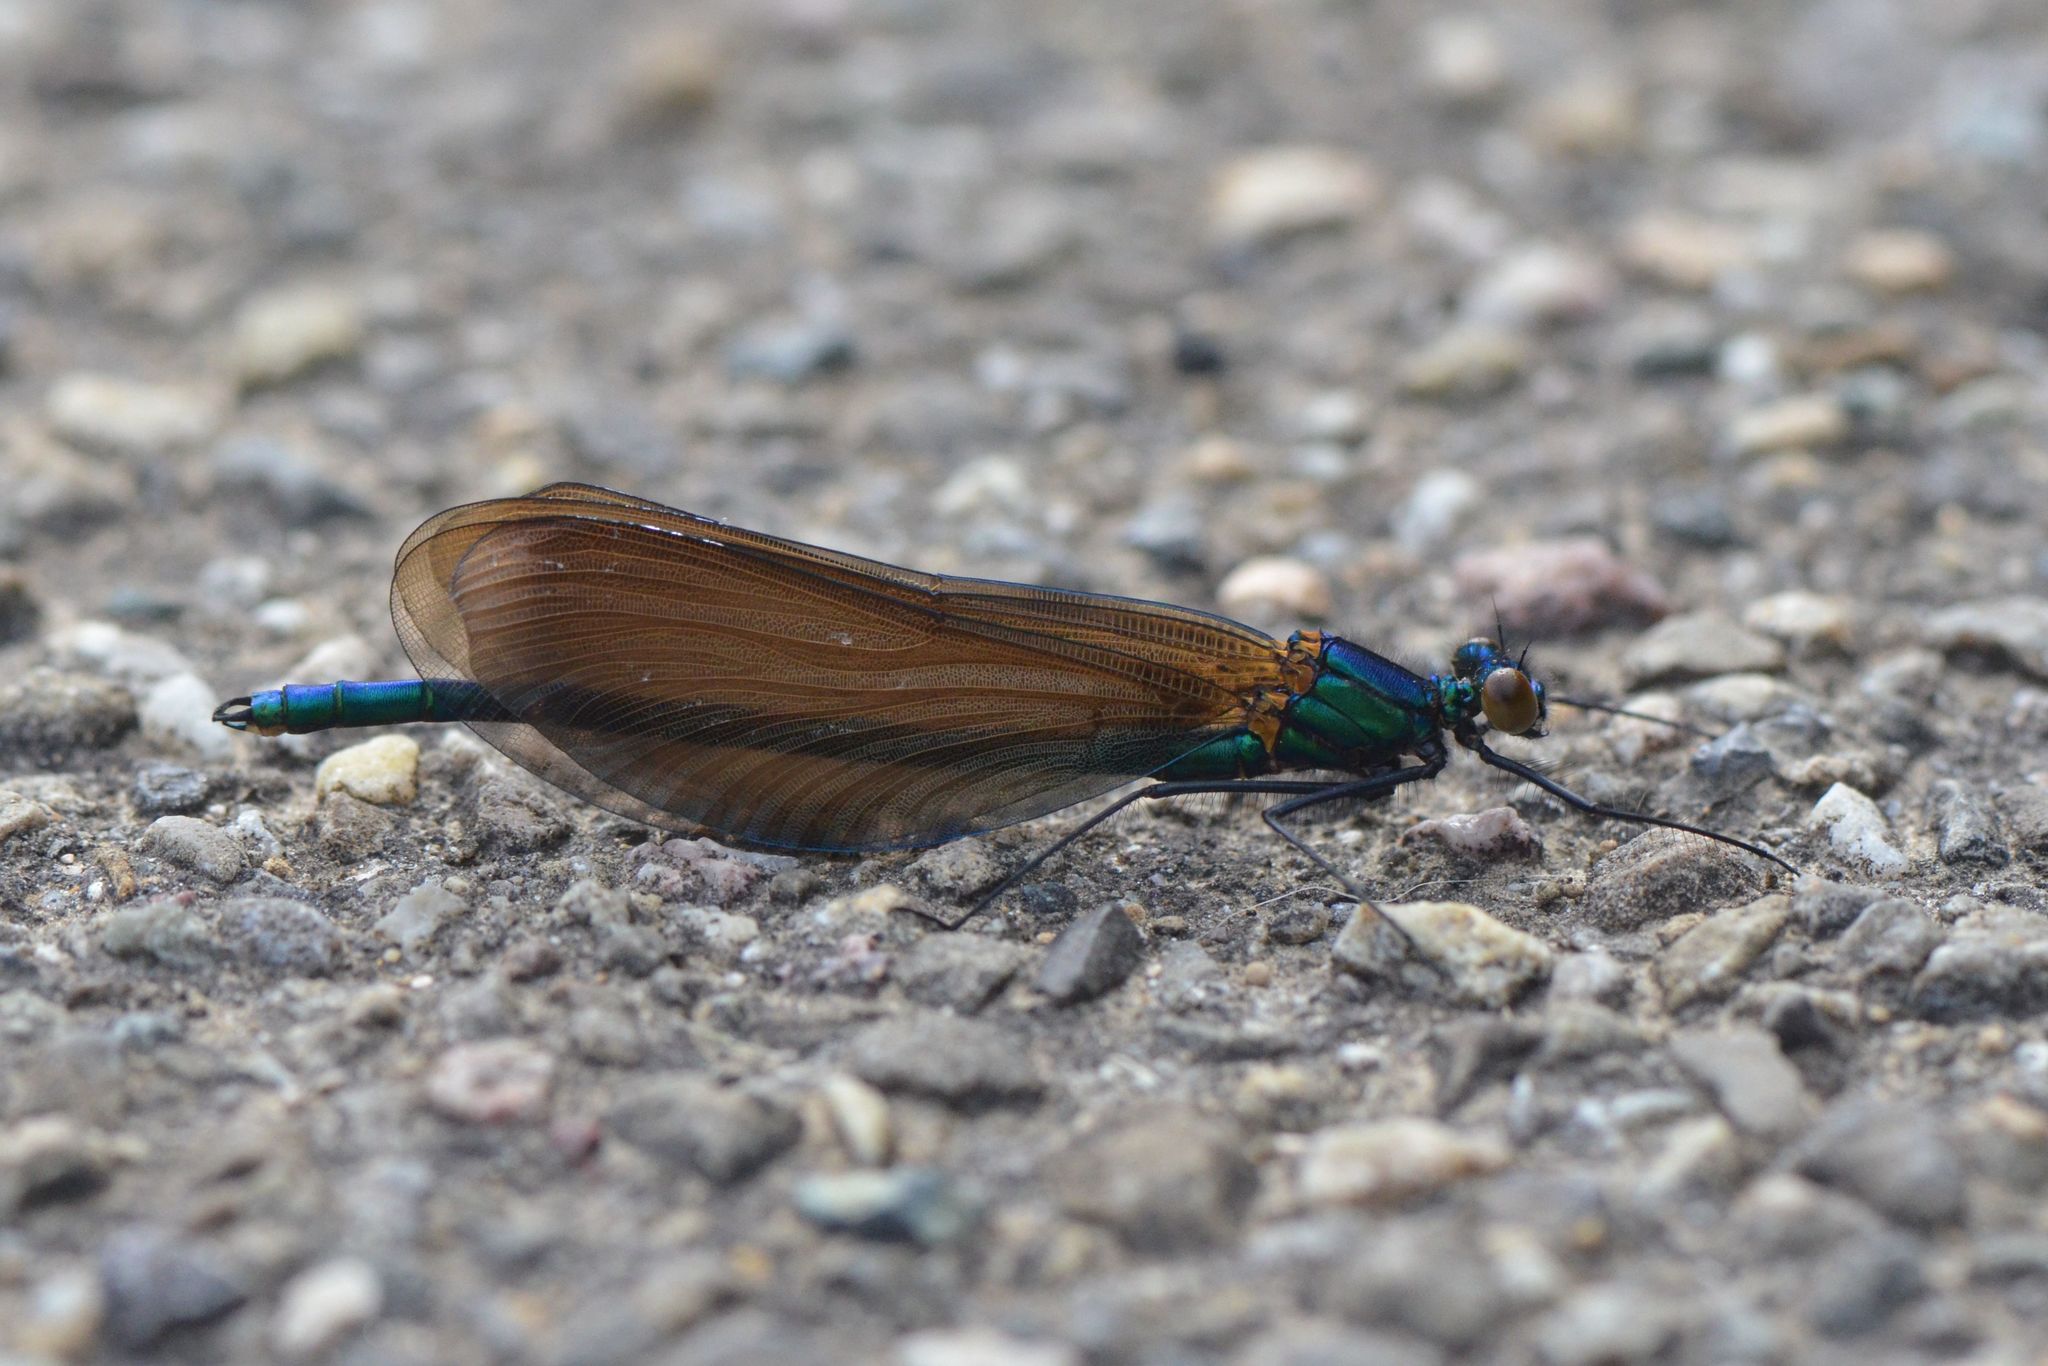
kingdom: Animalia
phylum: Arthropoda
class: Insecta
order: Odonata
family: Calopterygidae
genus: Calopteryx
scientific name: Calopteryx virgo
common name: Beautiful demoiselle
